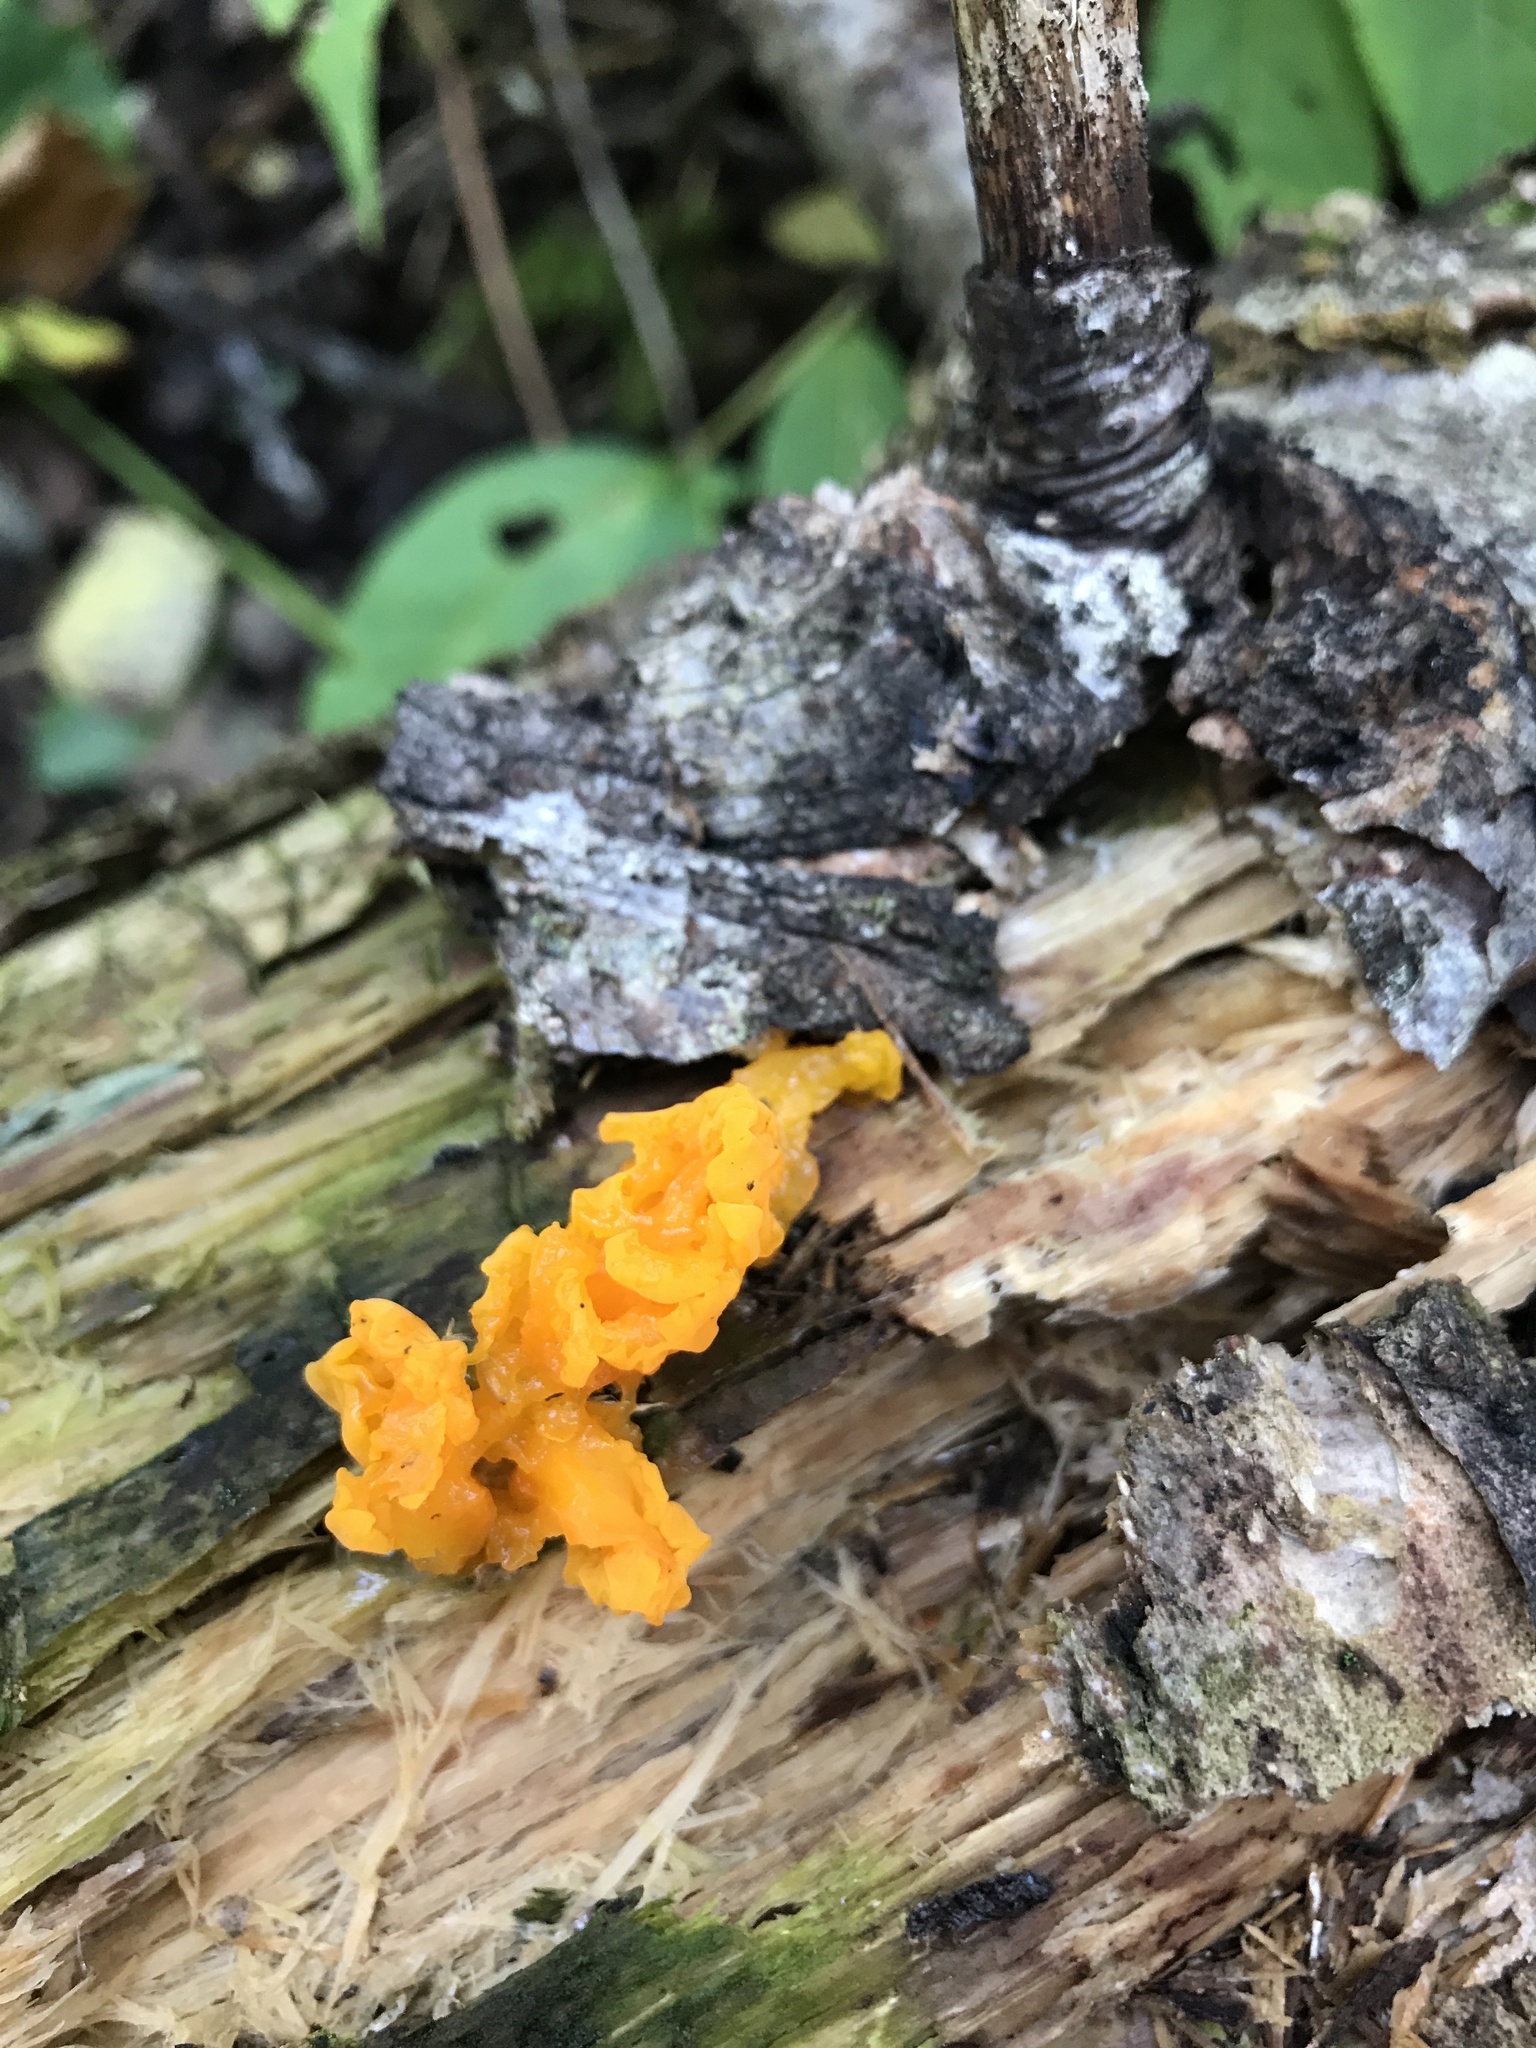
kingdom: Fungi
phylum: Basidiomycota
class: Dacrymycetes
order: Dacrymycetales
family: Dacrymycetaceae
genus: Dacrymyces
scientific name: Dacrymyces chrysospermus
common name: Orange jelly spot
